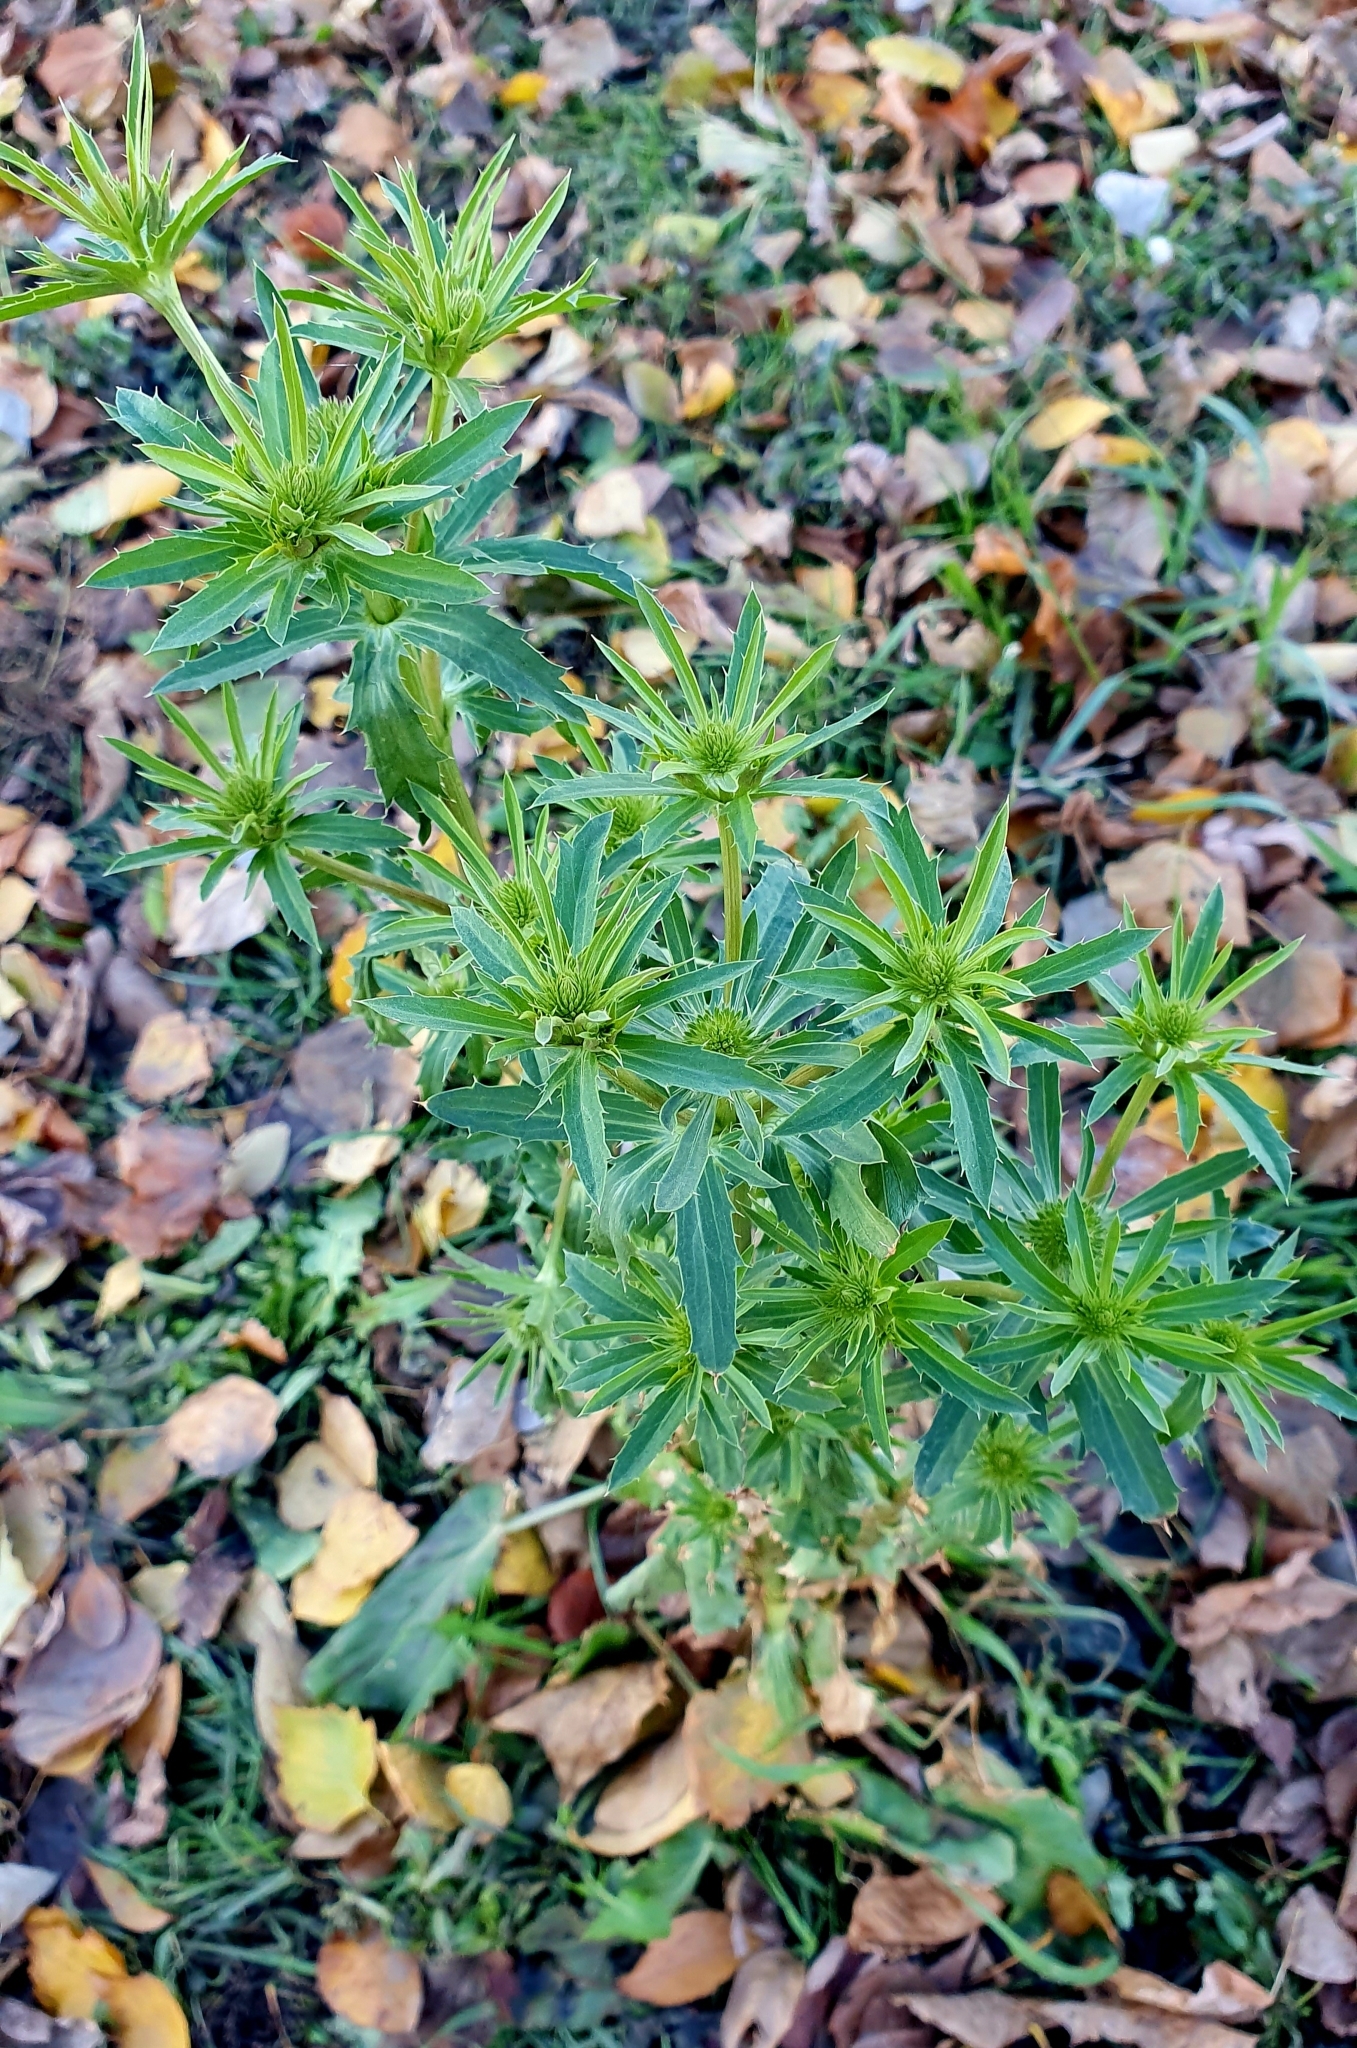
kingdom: Plantae
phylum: Tracheophyta
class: Magnoliopsida
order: Apiales
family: Apiaceae
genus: Eryngium
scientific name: Eryngium planum
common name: Blue eryngo
